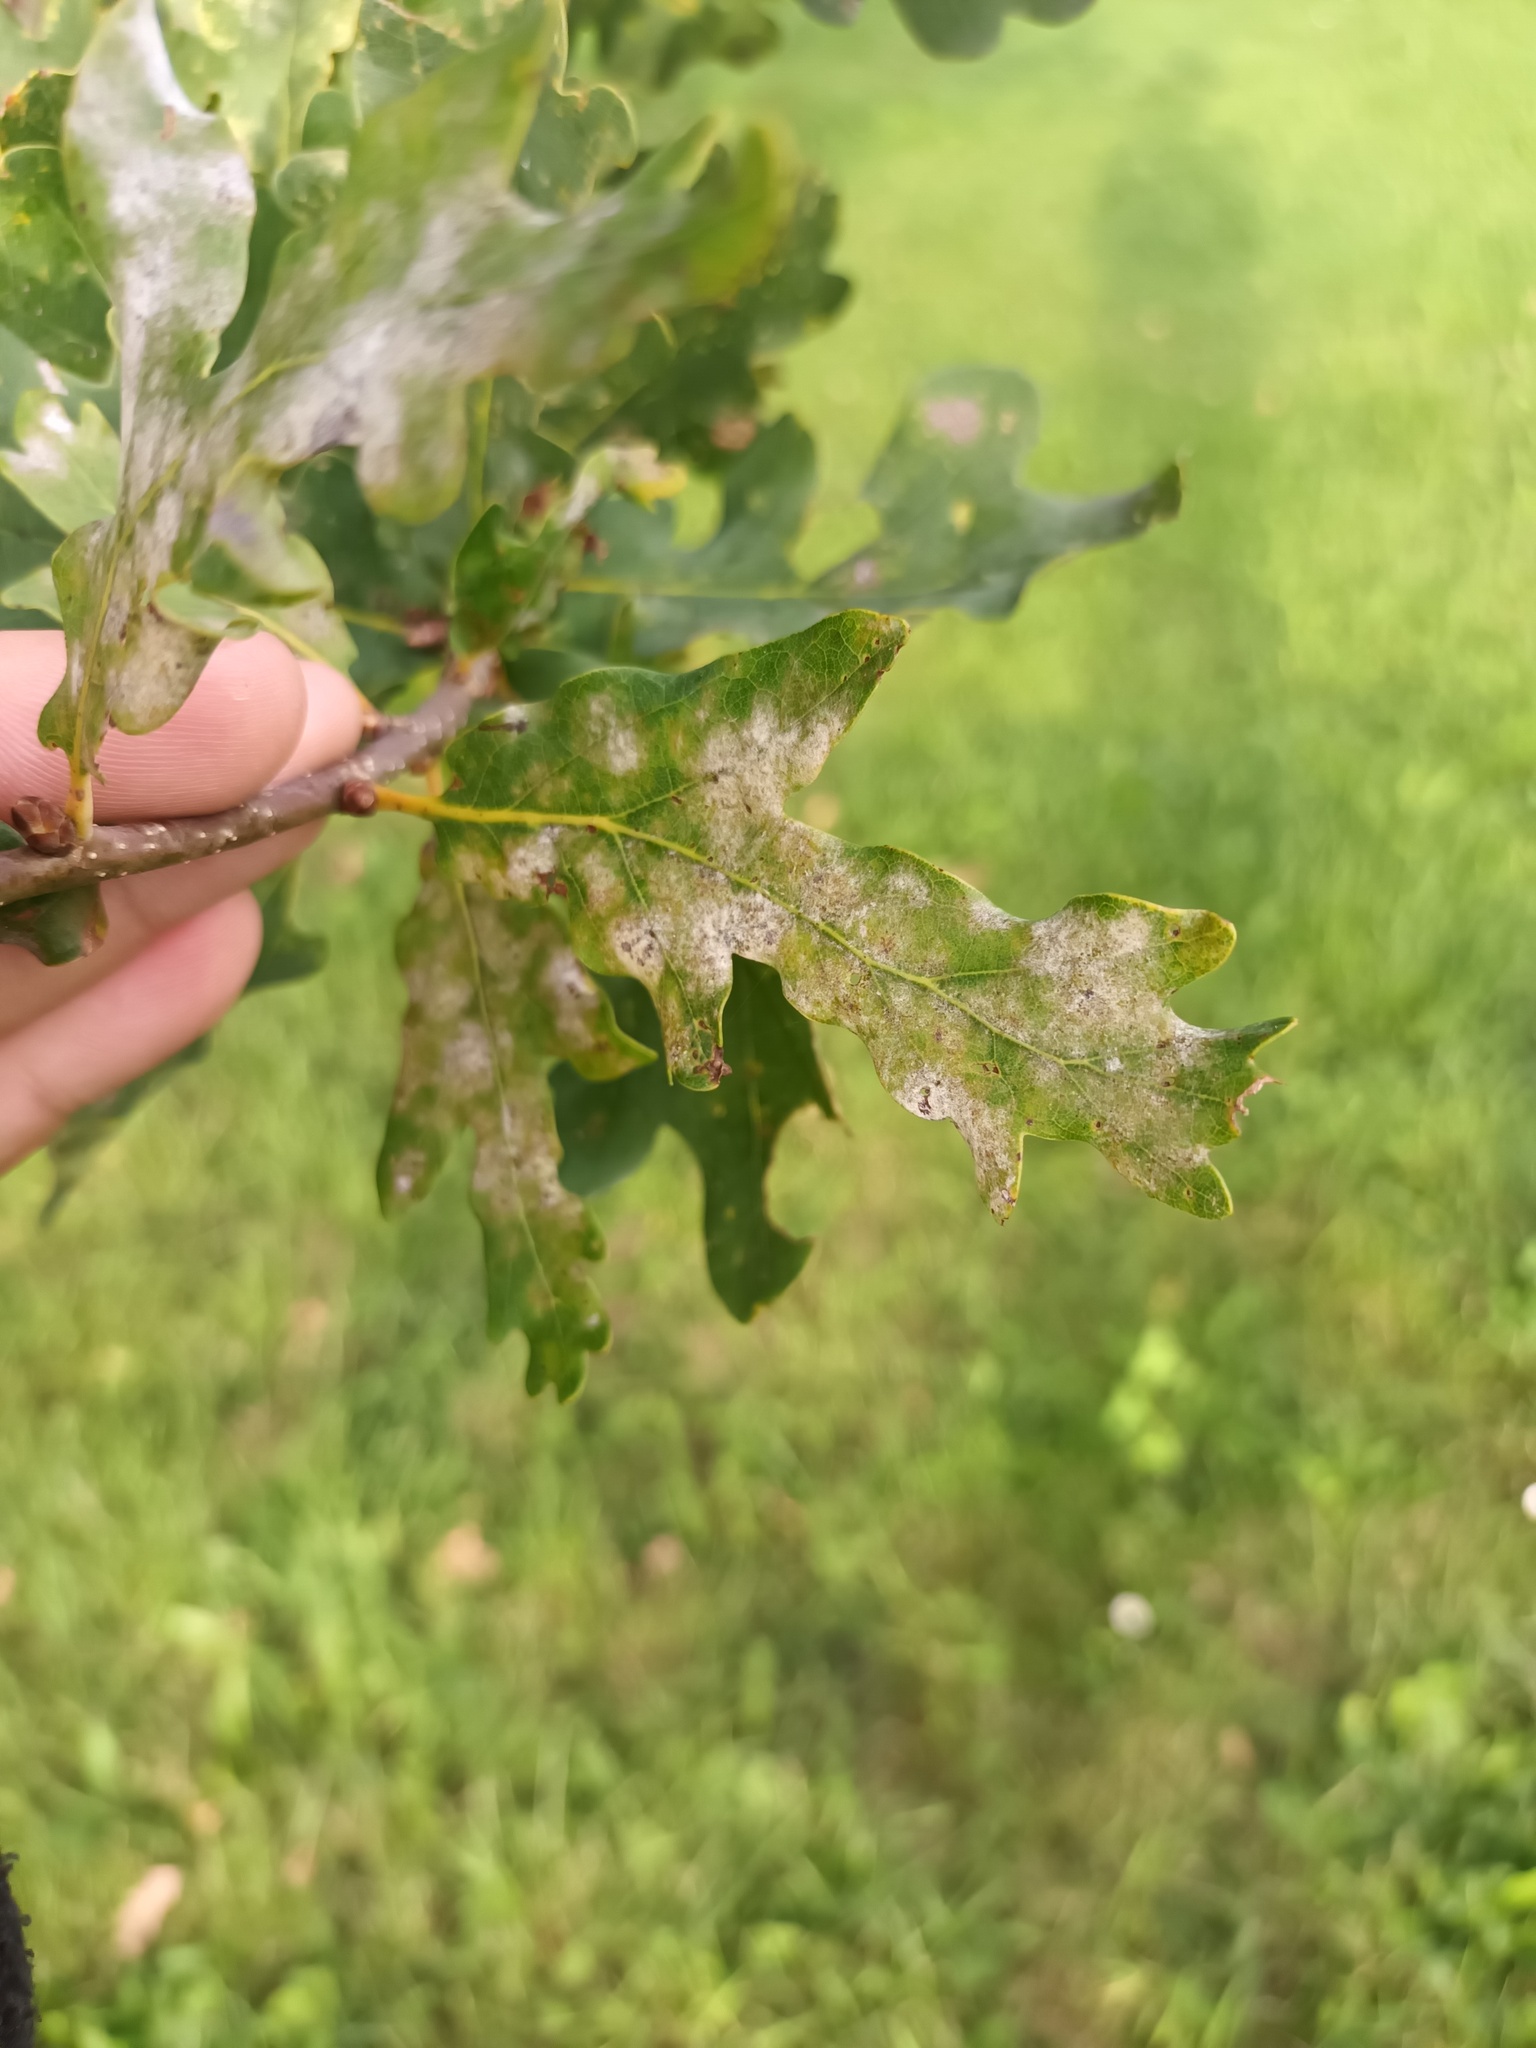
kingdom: Fungi
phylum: Ascomycota
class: Leotiomycetes
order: Helotiales
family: Erysiphaceae
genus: Erysiphe
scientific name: Erysiphe
